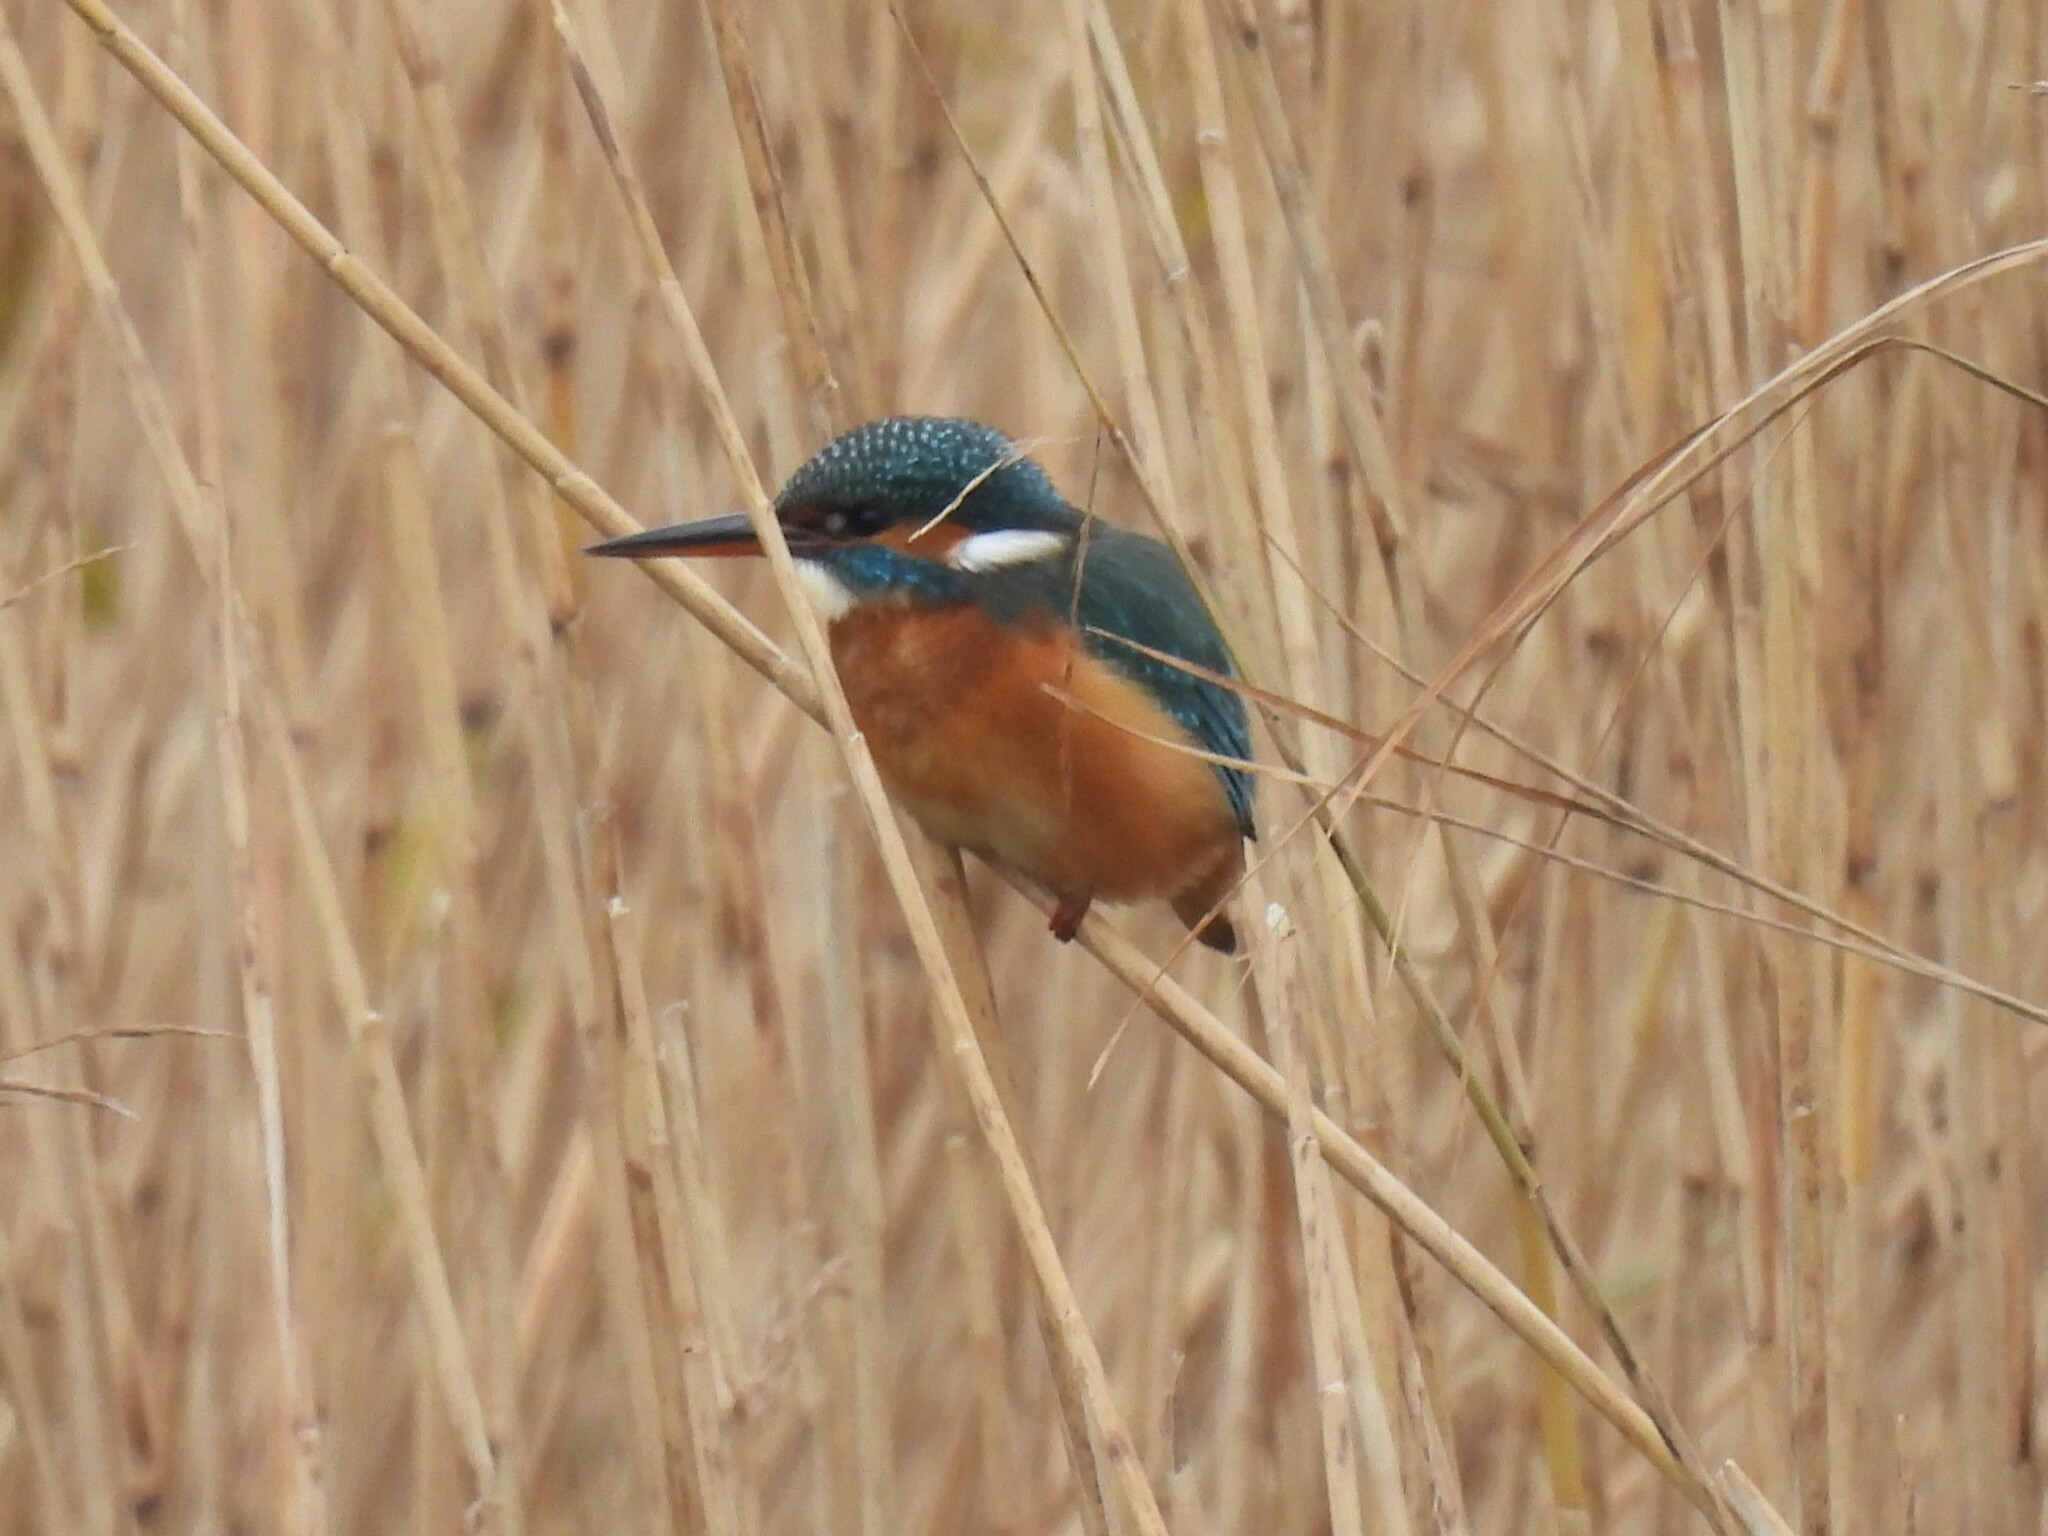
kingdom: Animalia
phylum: Chordata
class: Aves
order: Coraciiformes
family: Alcedinidae
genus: Alcedo
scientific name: Alcedo atthis
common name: Common kingfisher
